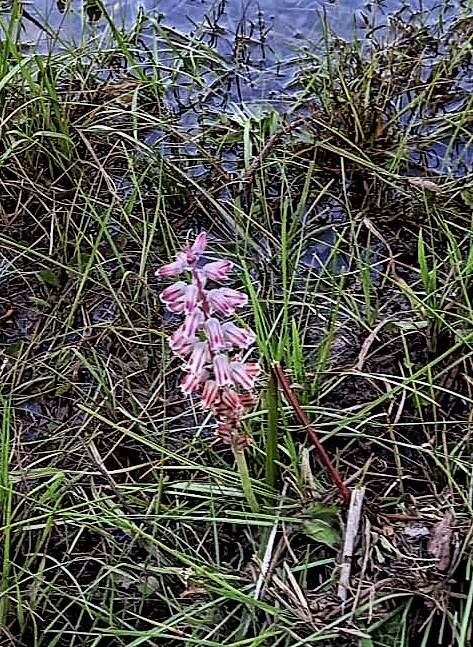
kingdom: Plantae
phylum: Tracheophyta
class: Liliopsida
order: Asparagales
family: Asparagaceae
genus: Lachenalia
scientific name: Lachenalia youngii
